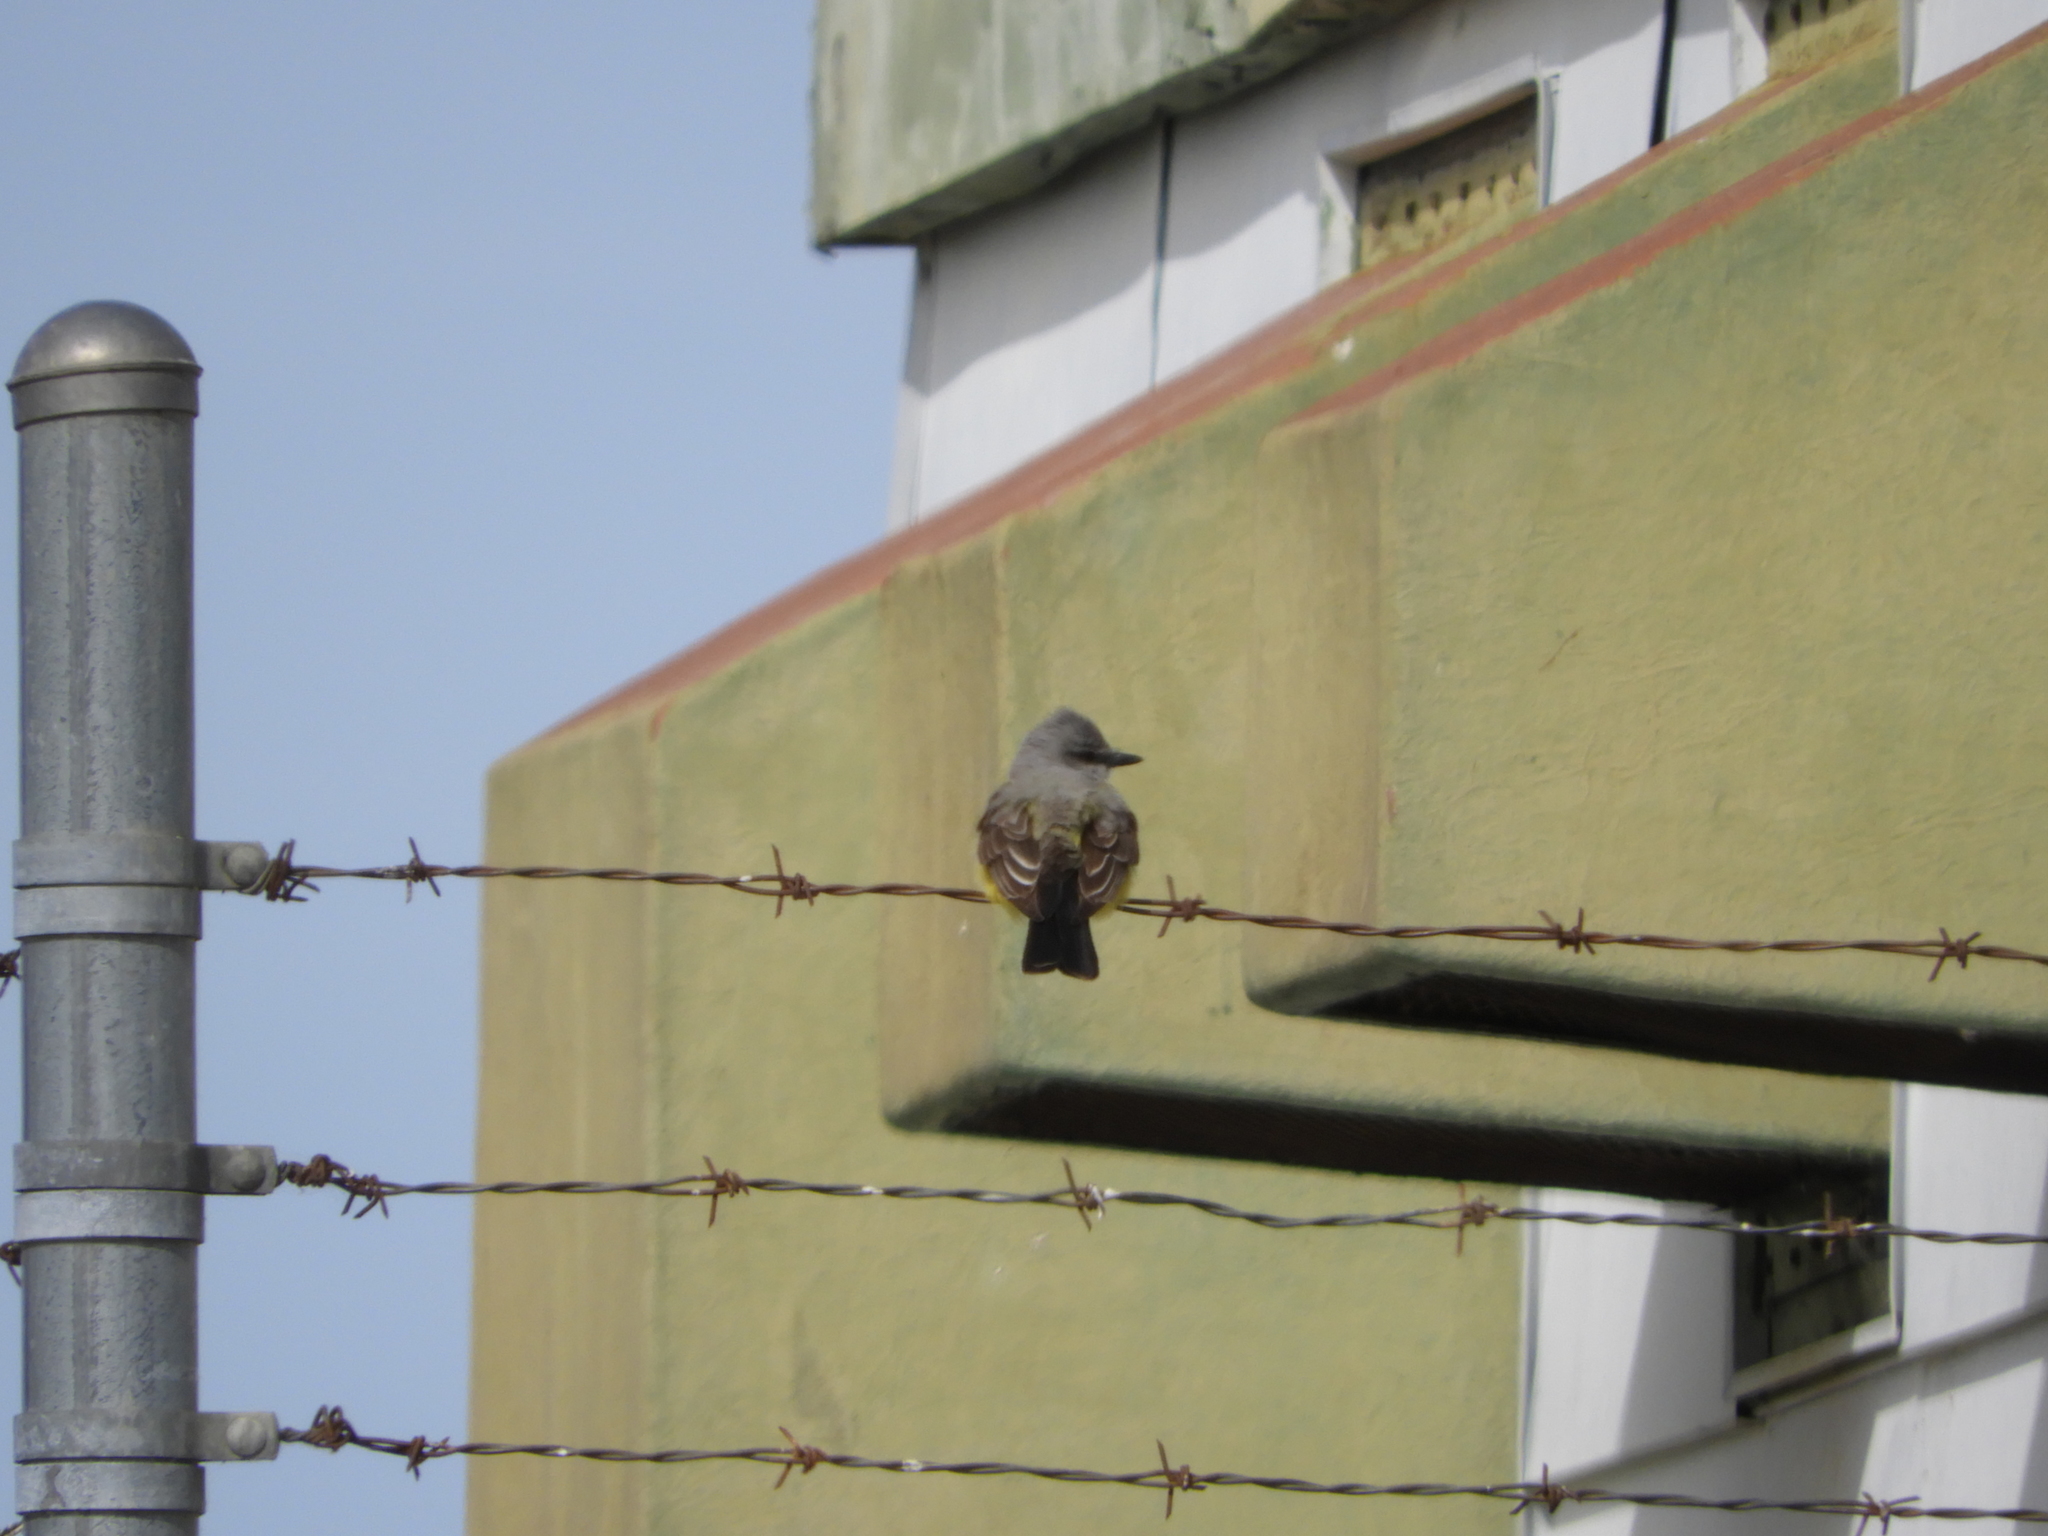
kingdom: Animalia
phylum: Chordata
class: Aves
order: Passeriformes
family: Tyrannidae
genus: Tyrannus
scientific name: Tyrannus verticalis
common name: Western kingbird
